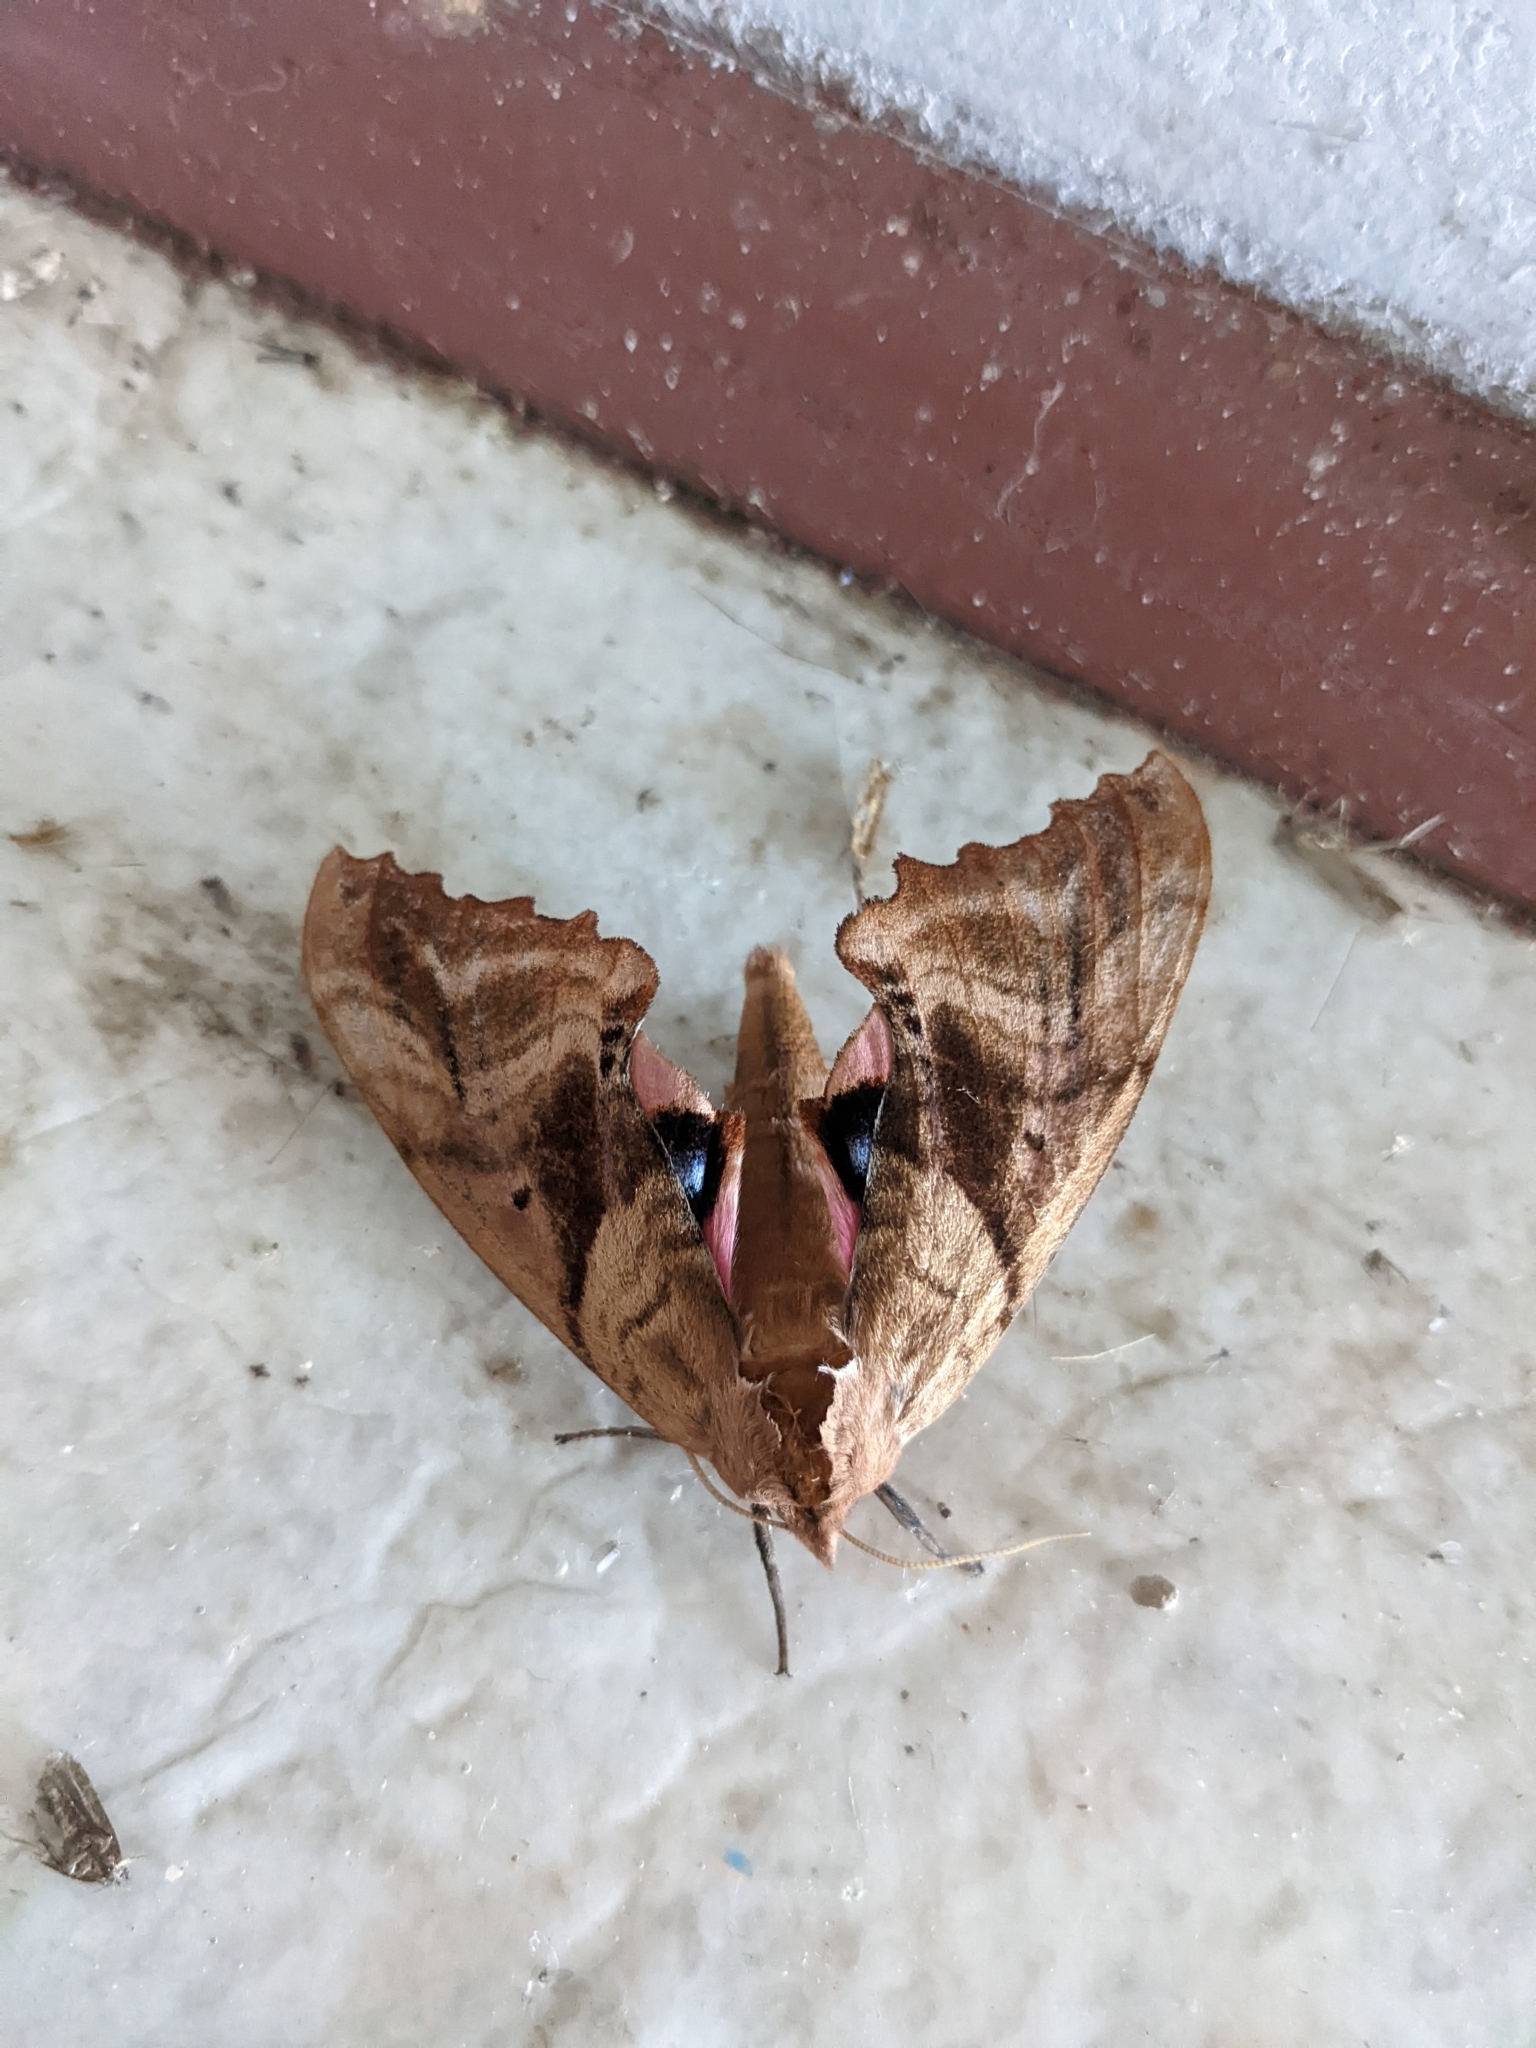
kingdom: Animalia
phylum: Arthropoda
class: Insecta
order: Lepidoptera
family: Sphingidae
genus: Paonias
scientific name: Paonias excaecata
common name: Blind-eyed sphinx
